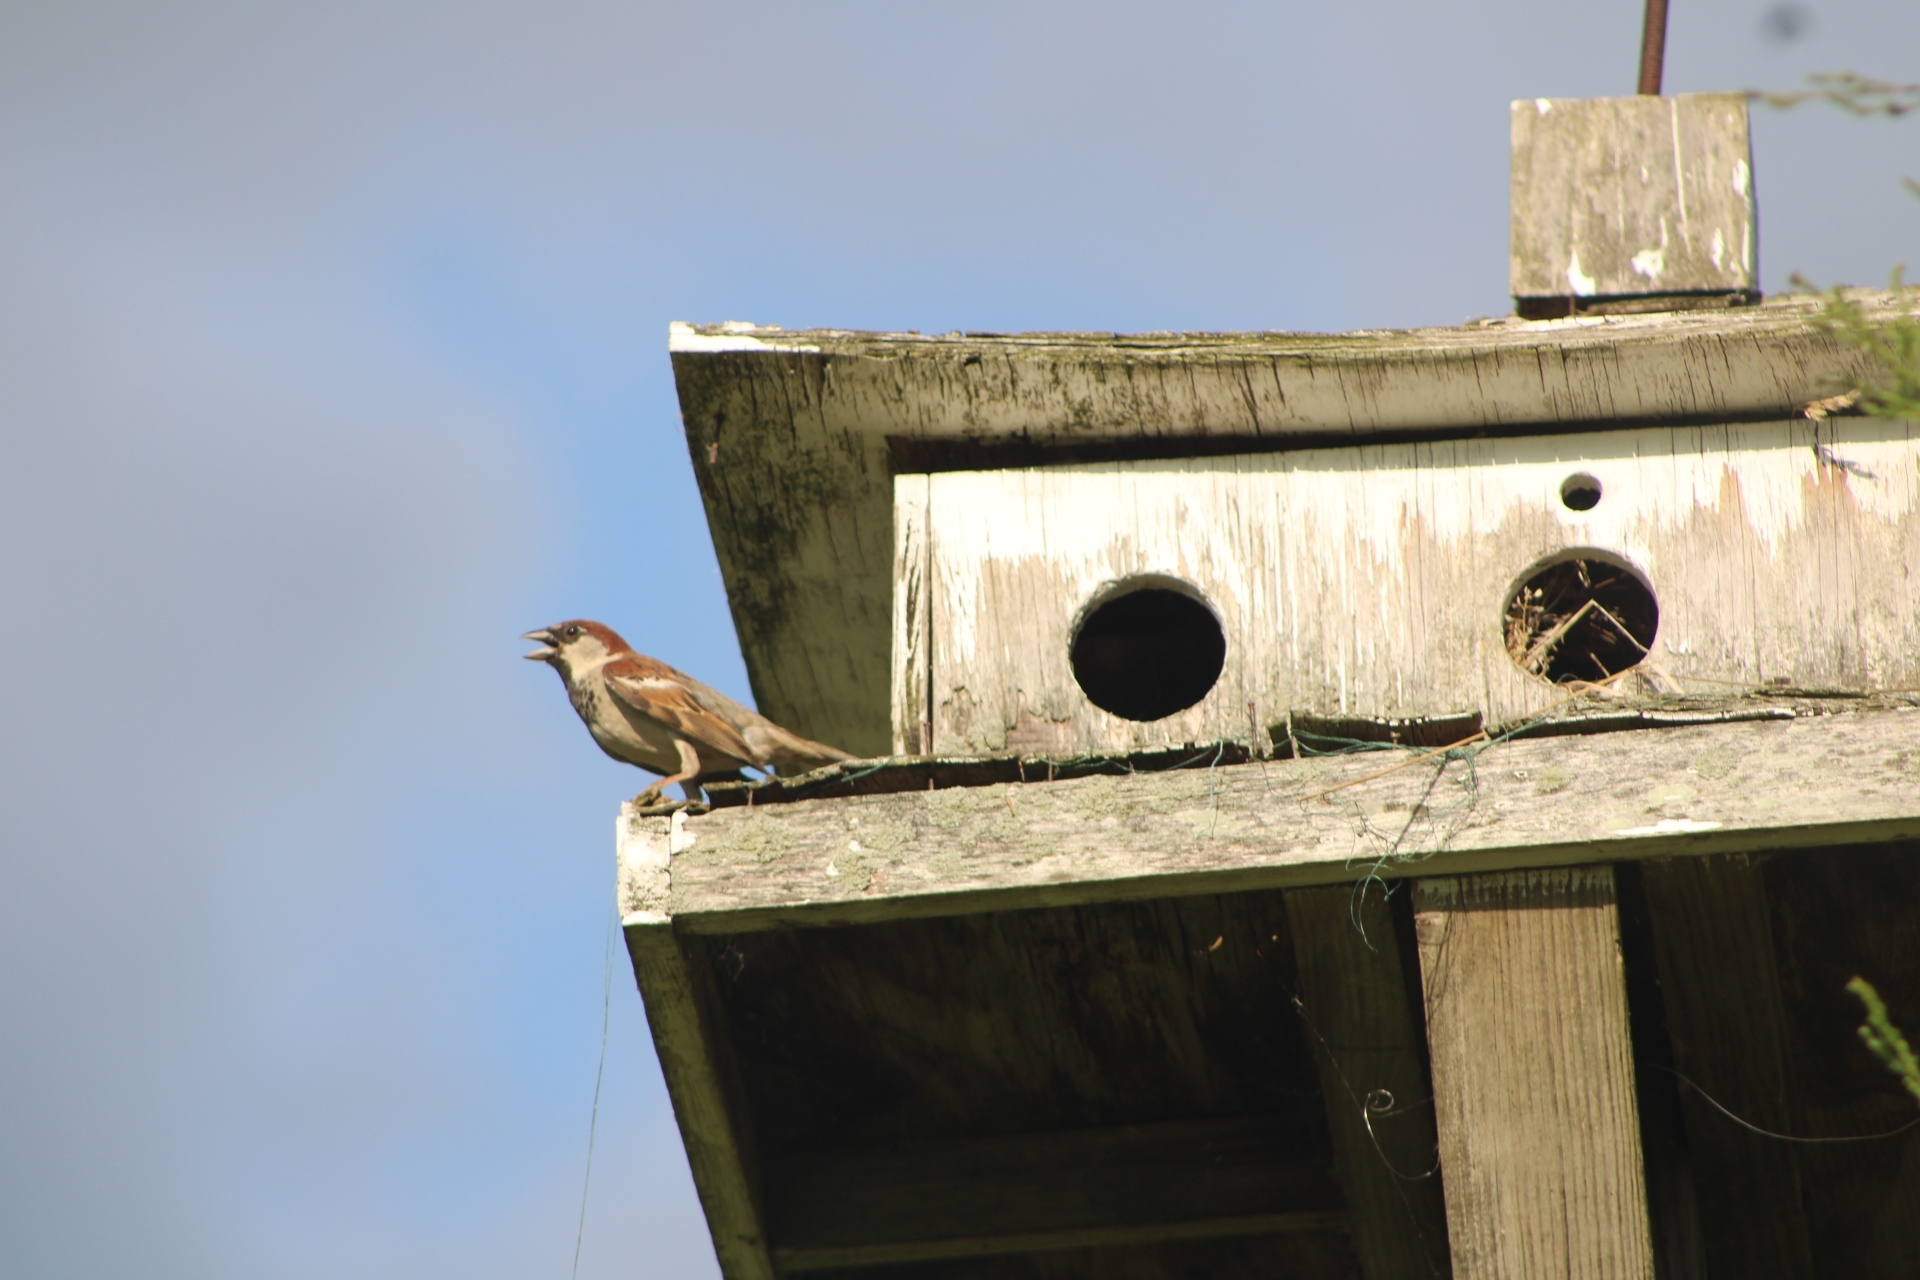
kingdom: Animalia
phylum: Chordata
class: Aves
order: Passeriformes
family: Passeridae
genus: Passer
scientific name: Passer domesticus
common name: House sparrow
